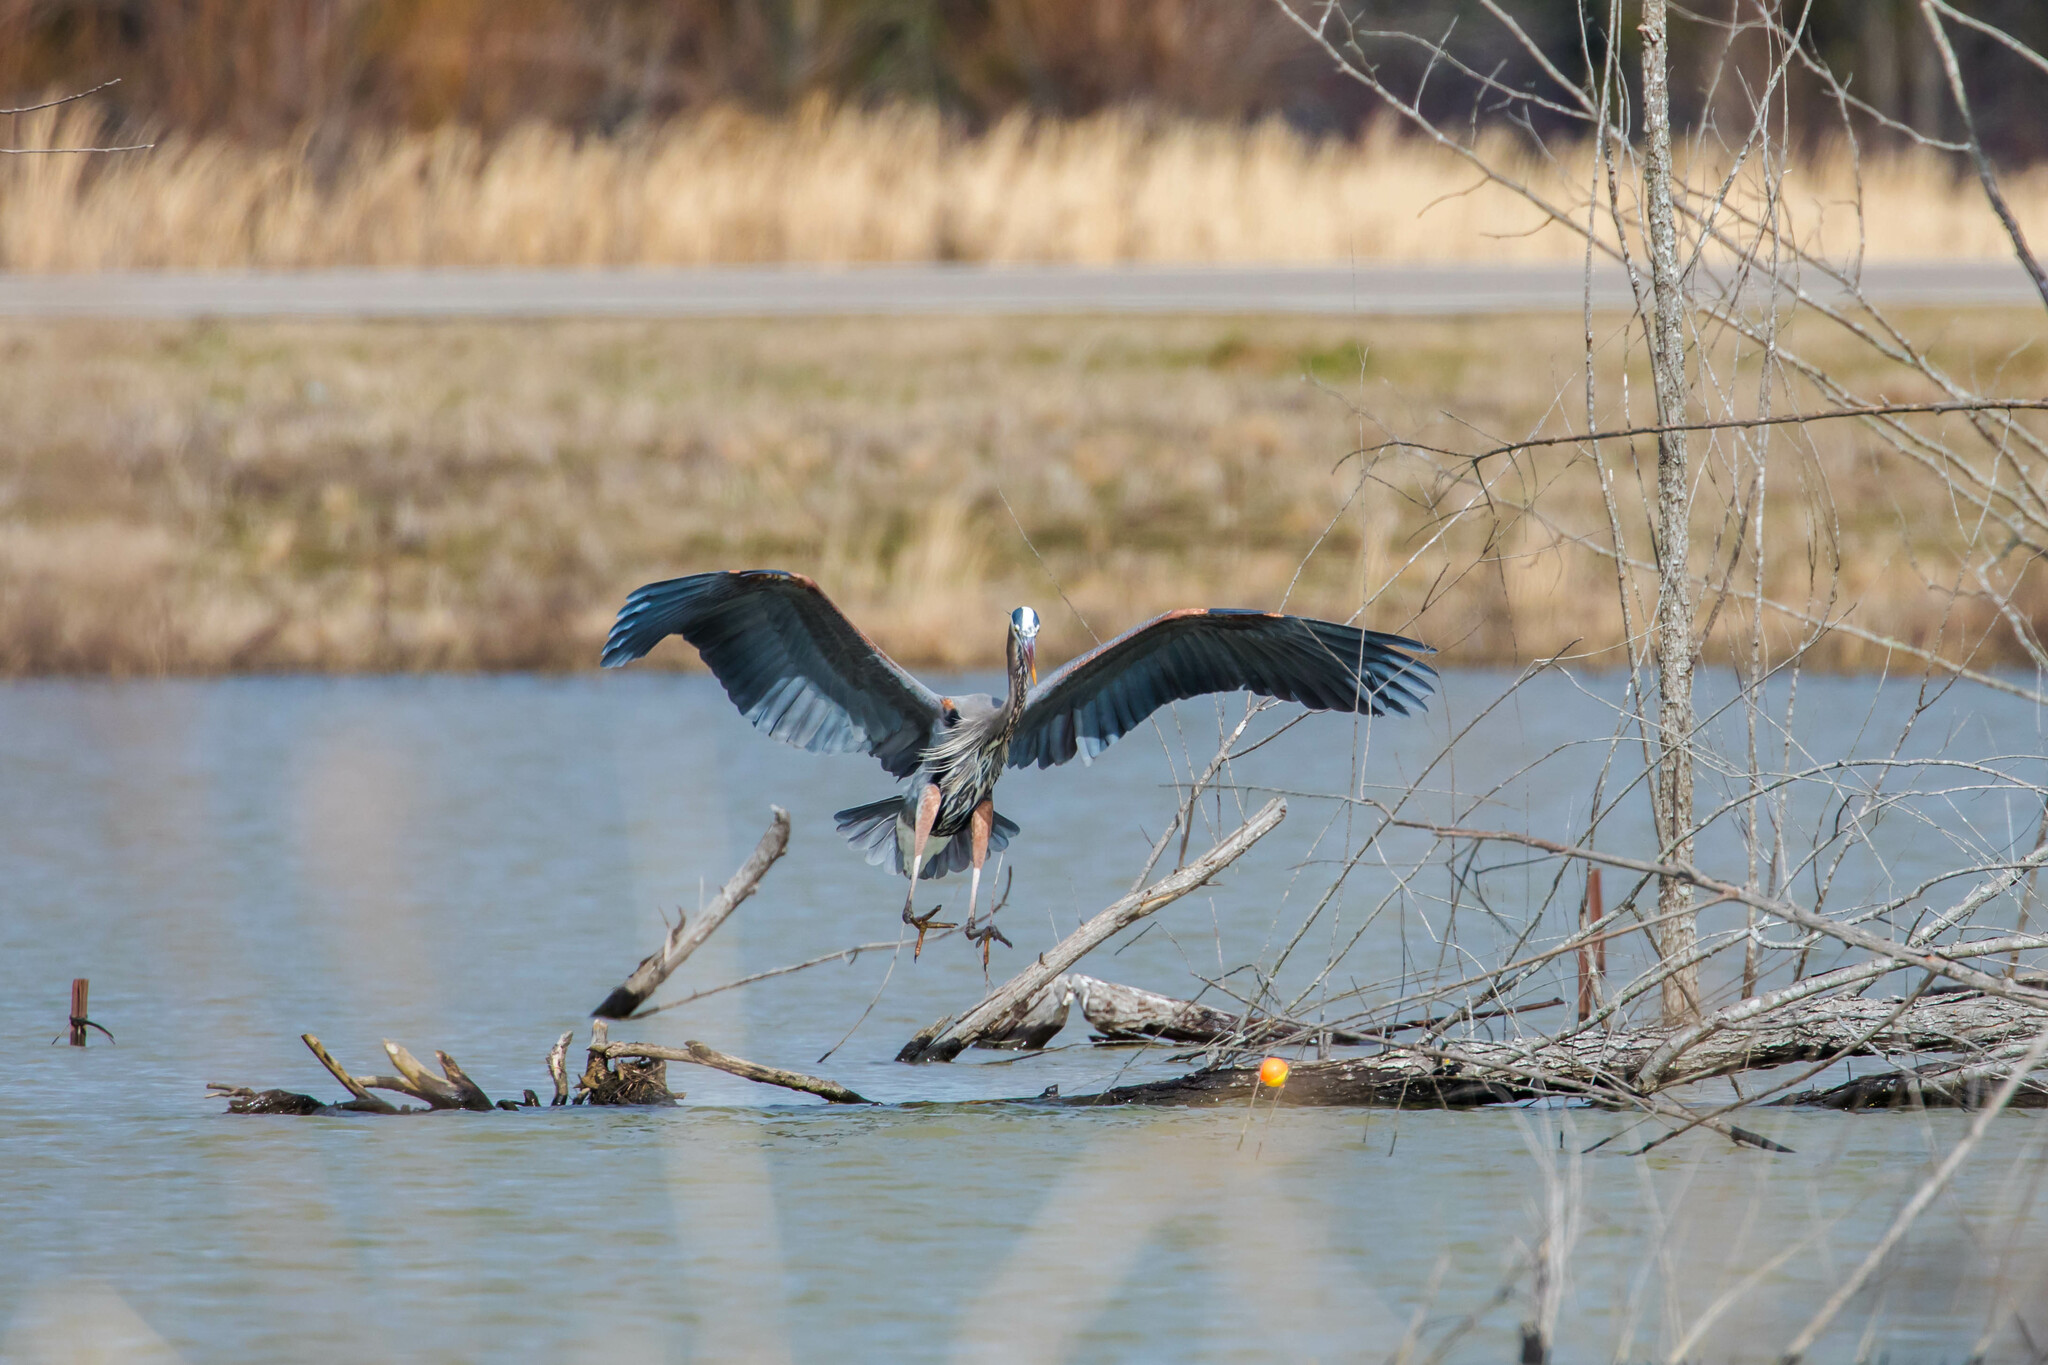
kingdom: Animalia
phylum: Chordata
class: Aves
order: Pelecaniformes
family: Ardeidae
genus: Ardea
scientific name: Ardea herodias
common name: Great blue heron
